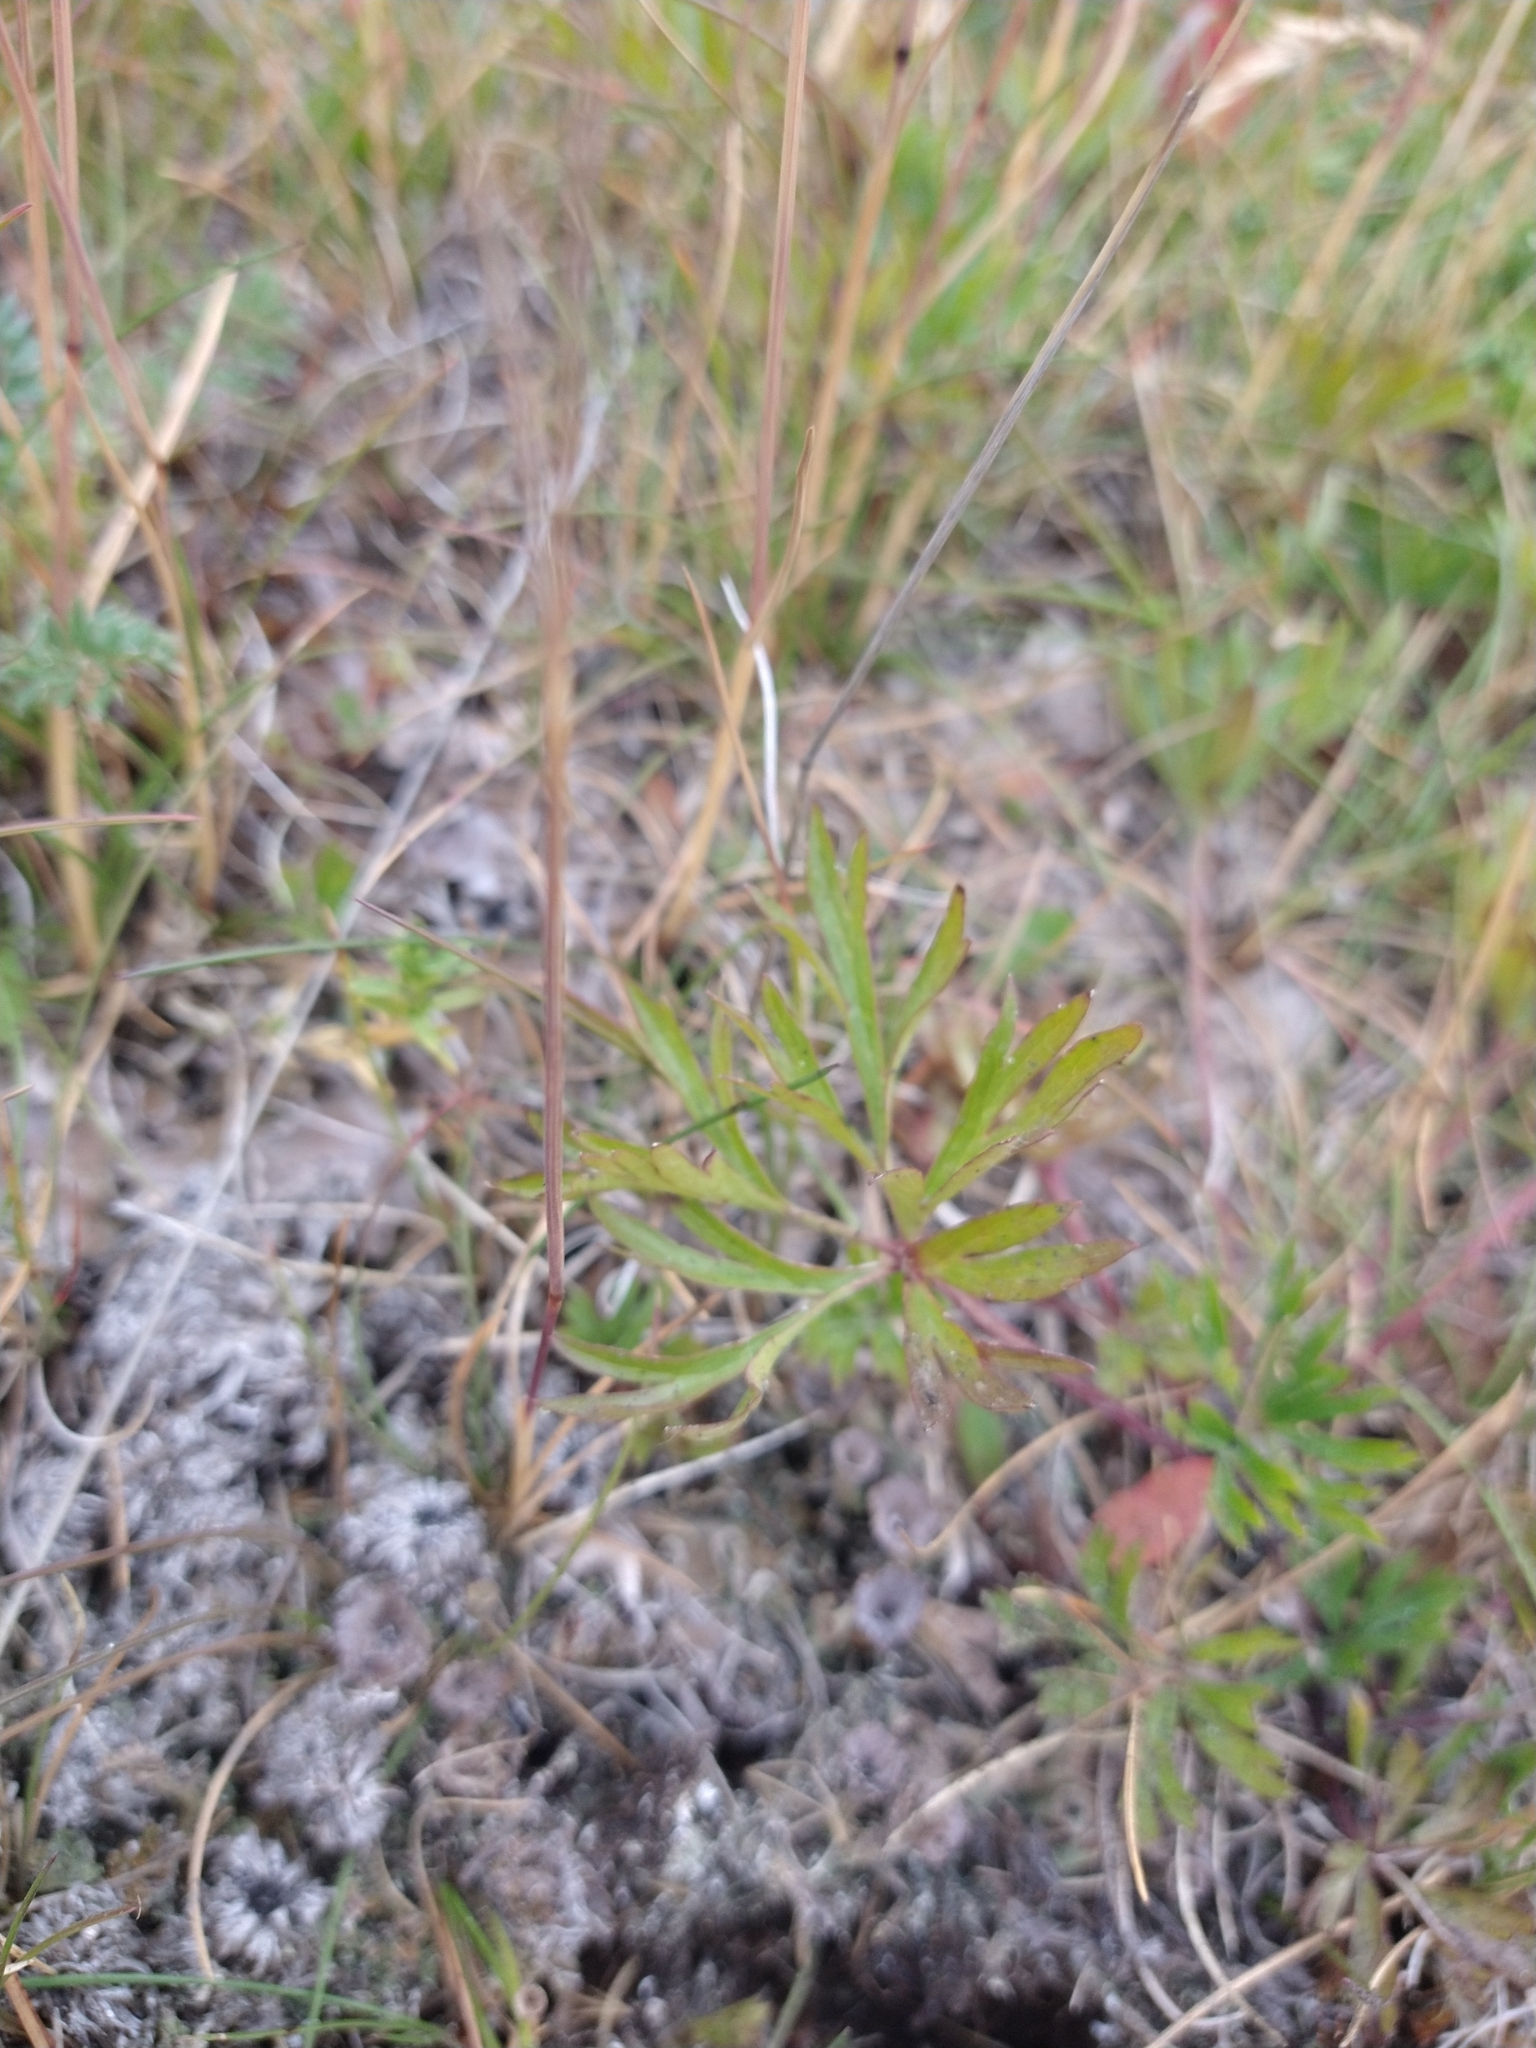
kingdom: Plantae
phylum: Tracheophyta
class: Magnoliopsida
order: Ranunculales
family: Ranunculaceae
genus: Anemone
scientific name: Anemone multifida
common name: Bird's-foot anemone
